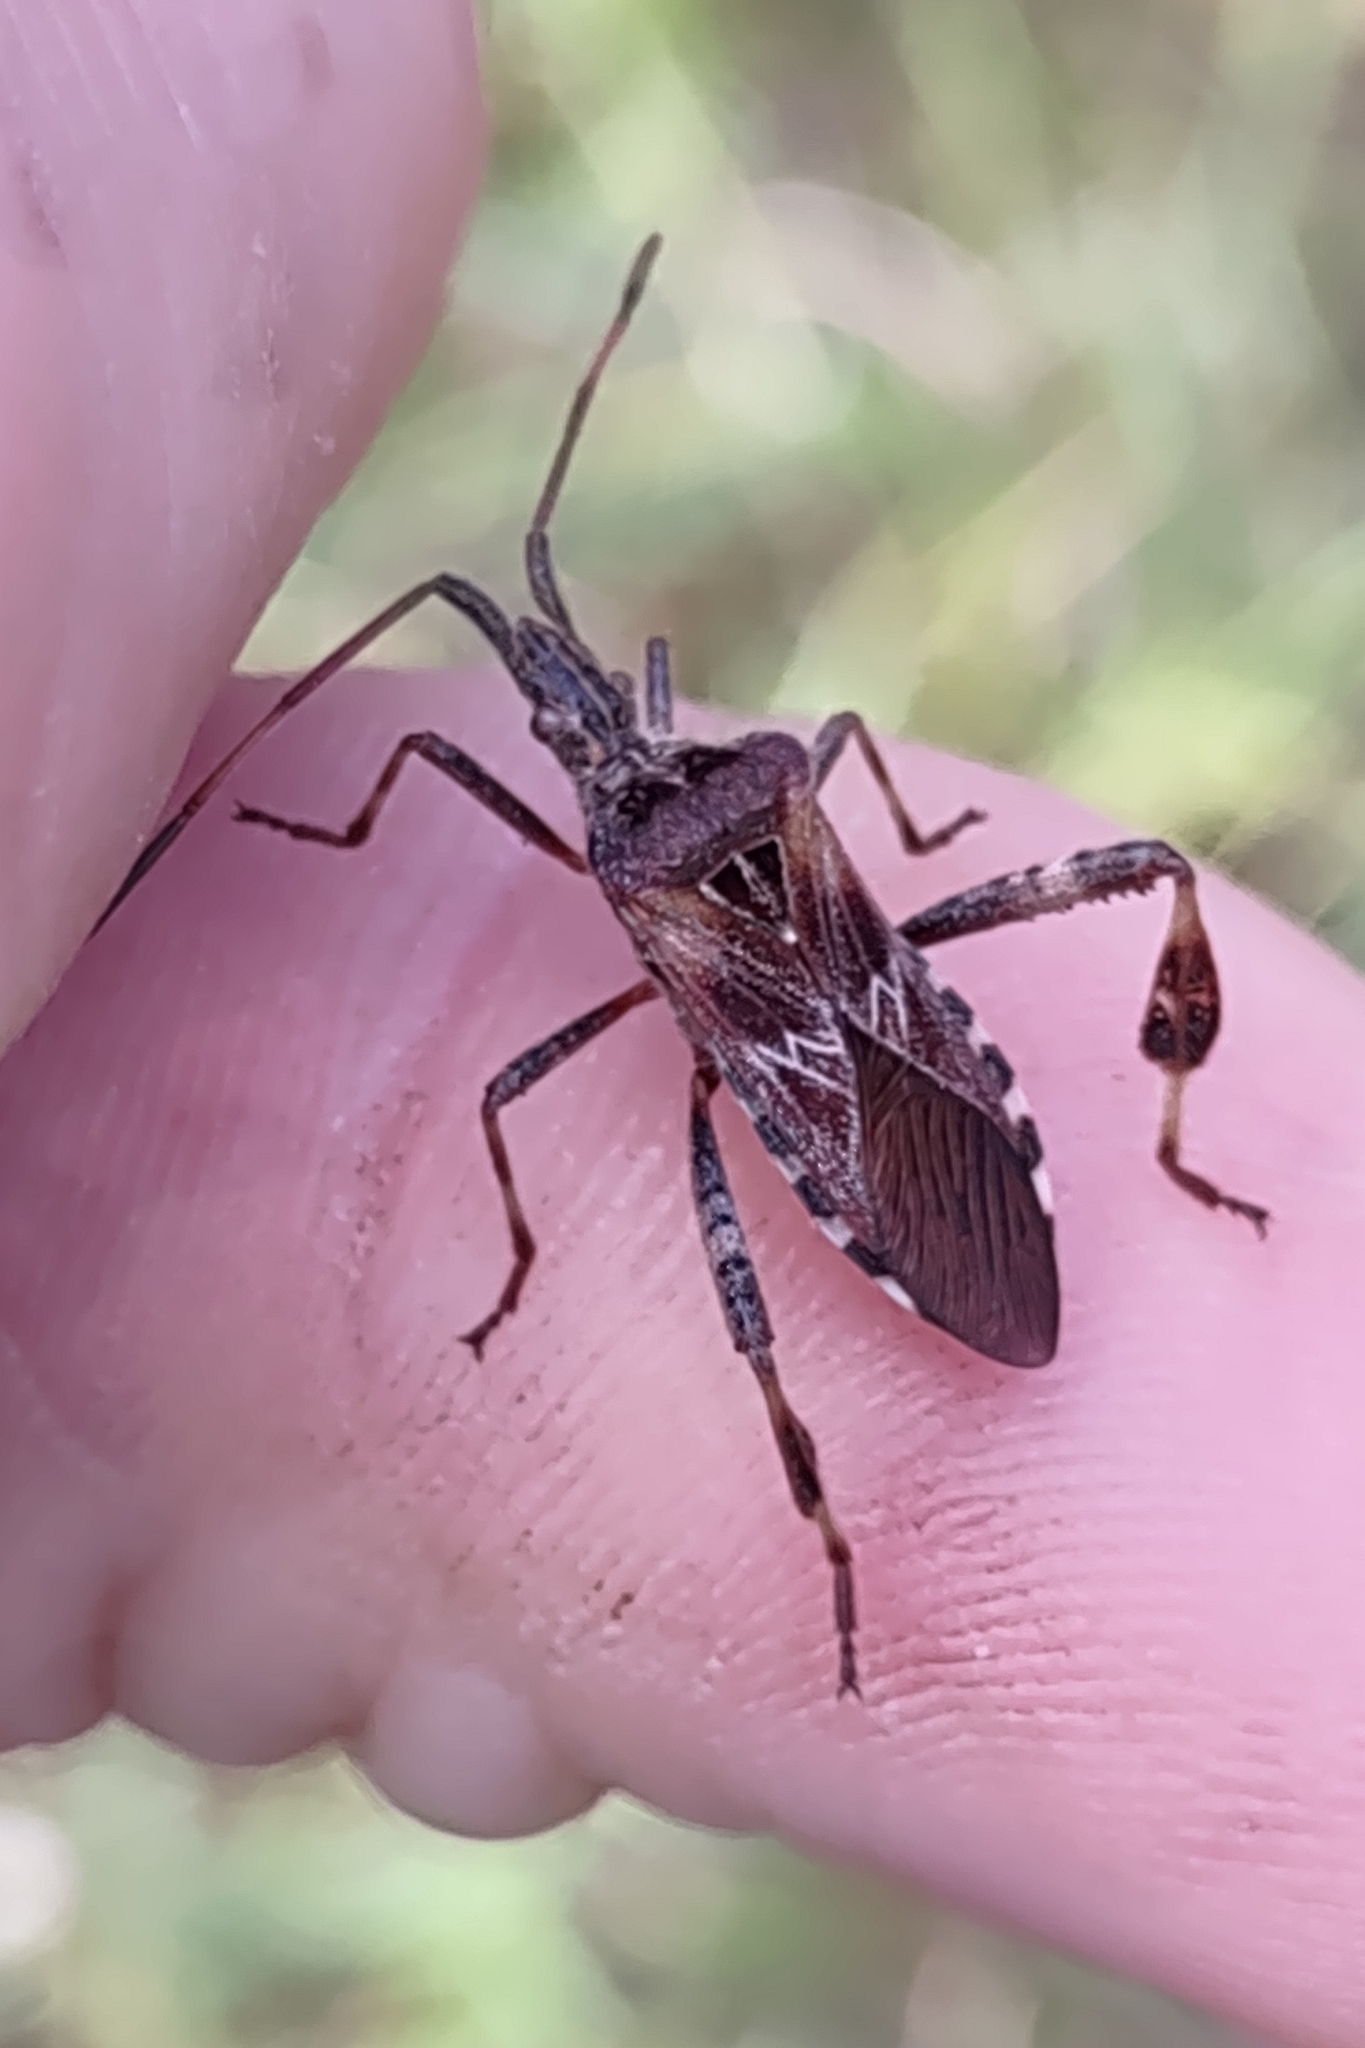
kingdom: Animalia
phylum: Arthropoda
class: Insecta
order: Hemiptera
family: Coreidae
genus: Leptoglossus
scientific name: Leptoglossus occidentalis
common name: Western conifer-seed bug
